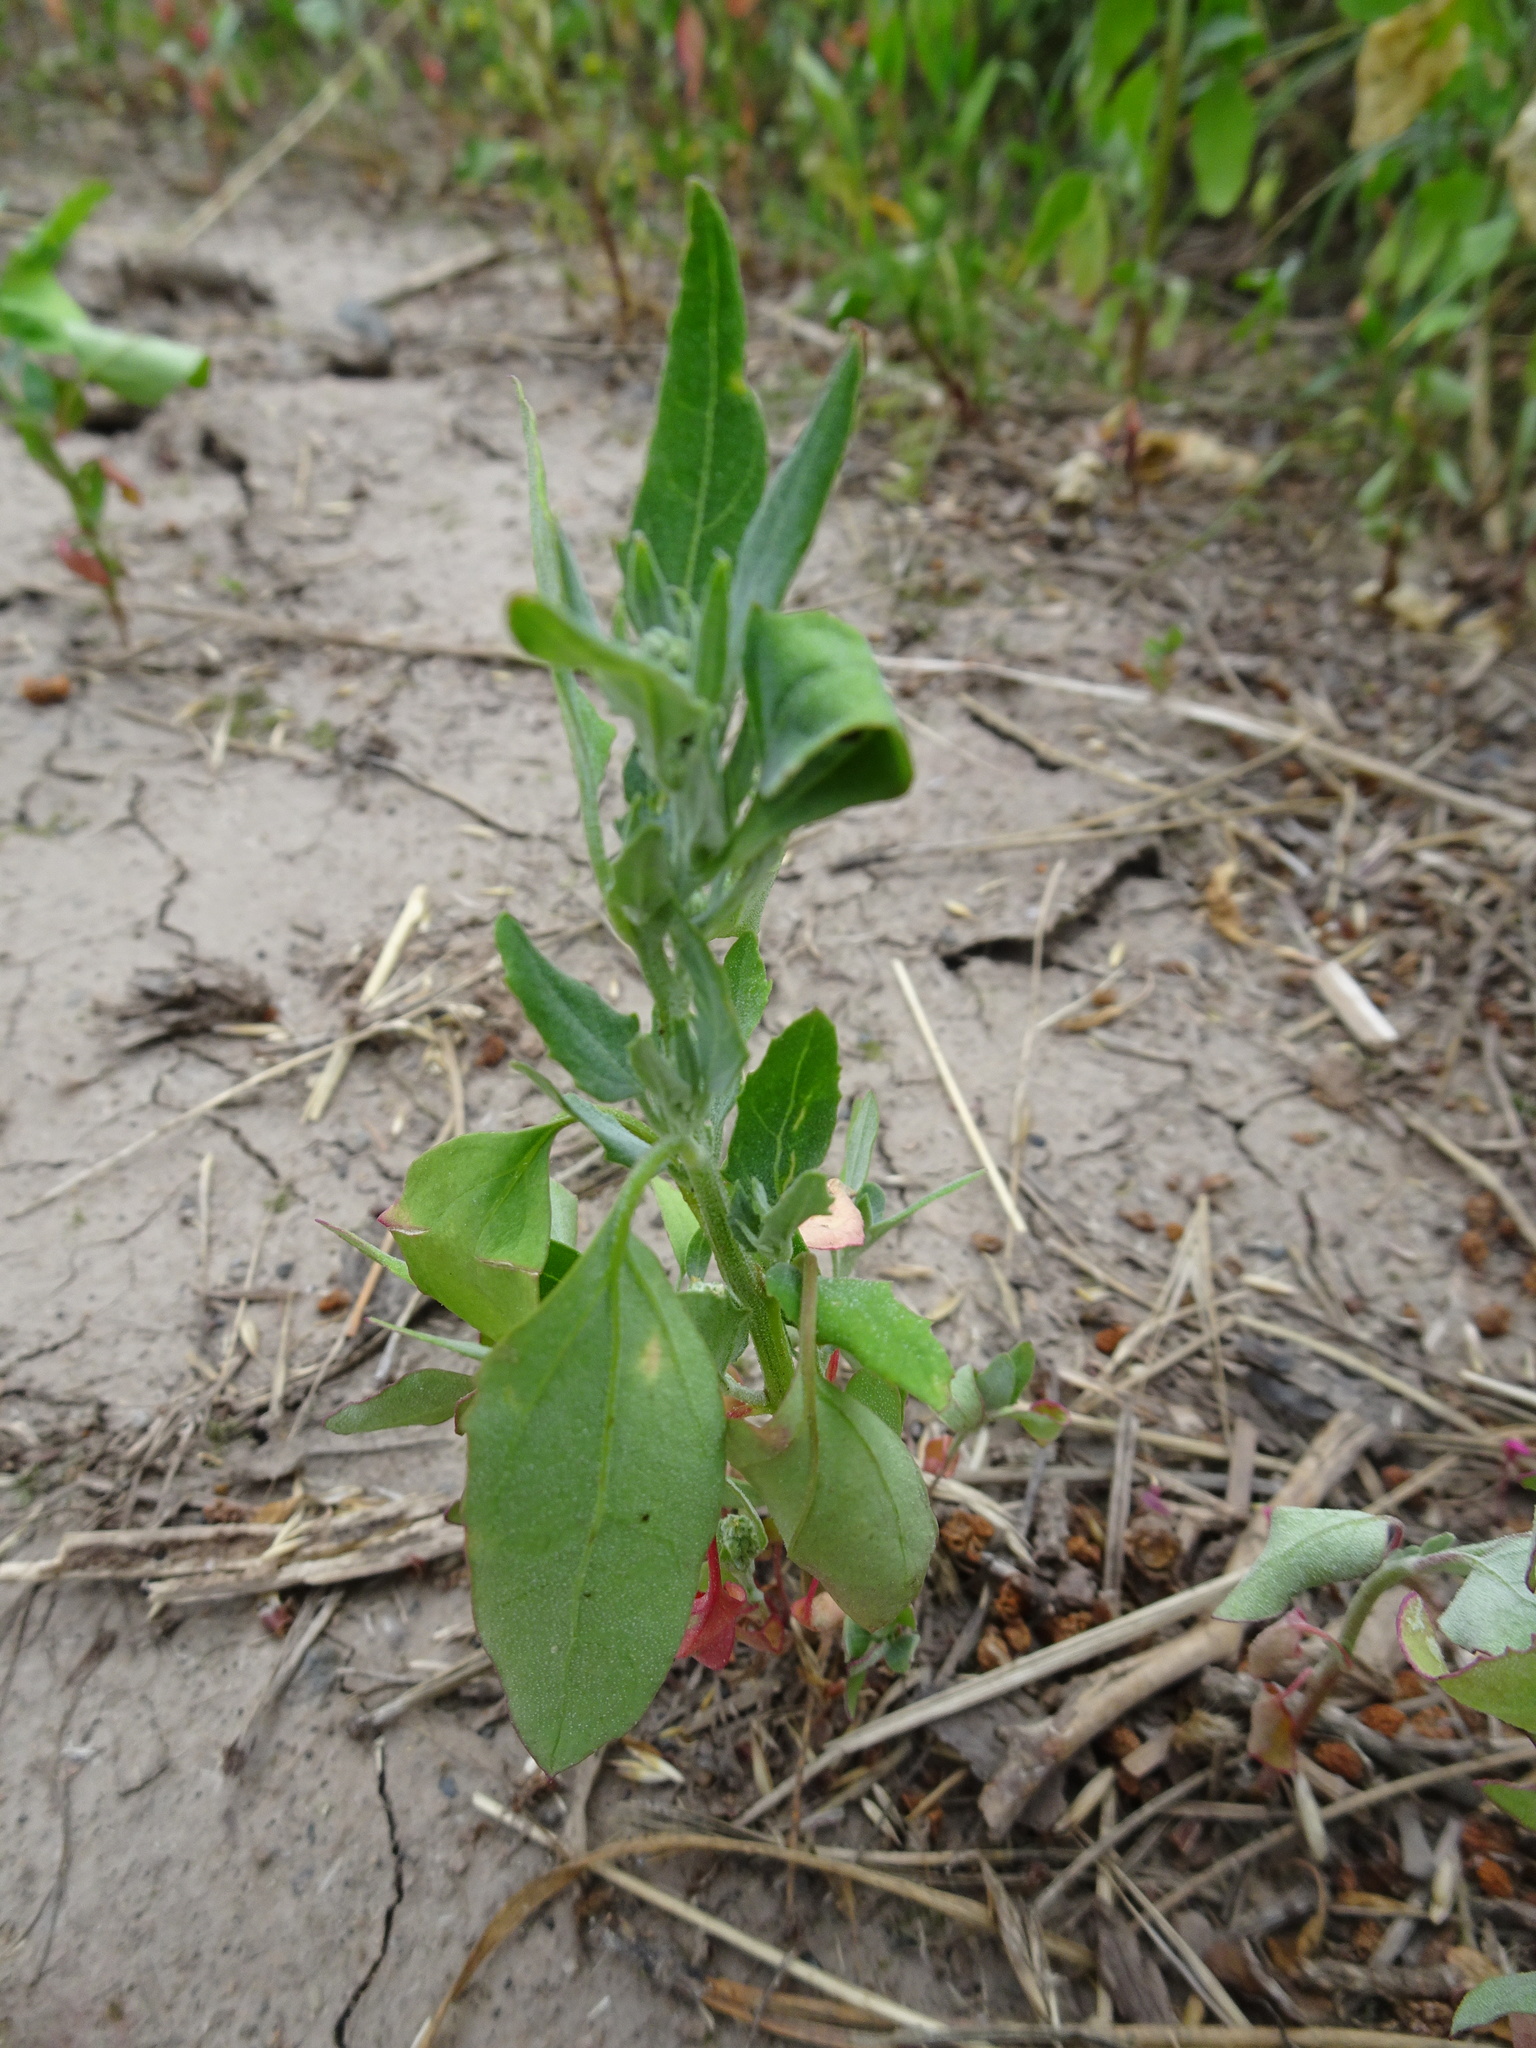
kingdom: Plantae
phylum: Tracheophyta
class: Magnoliopsida
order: Caryophyllales
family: Amaranthaceae
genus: Chenopodium
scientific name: Chenopodium album
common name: Fat-hen
